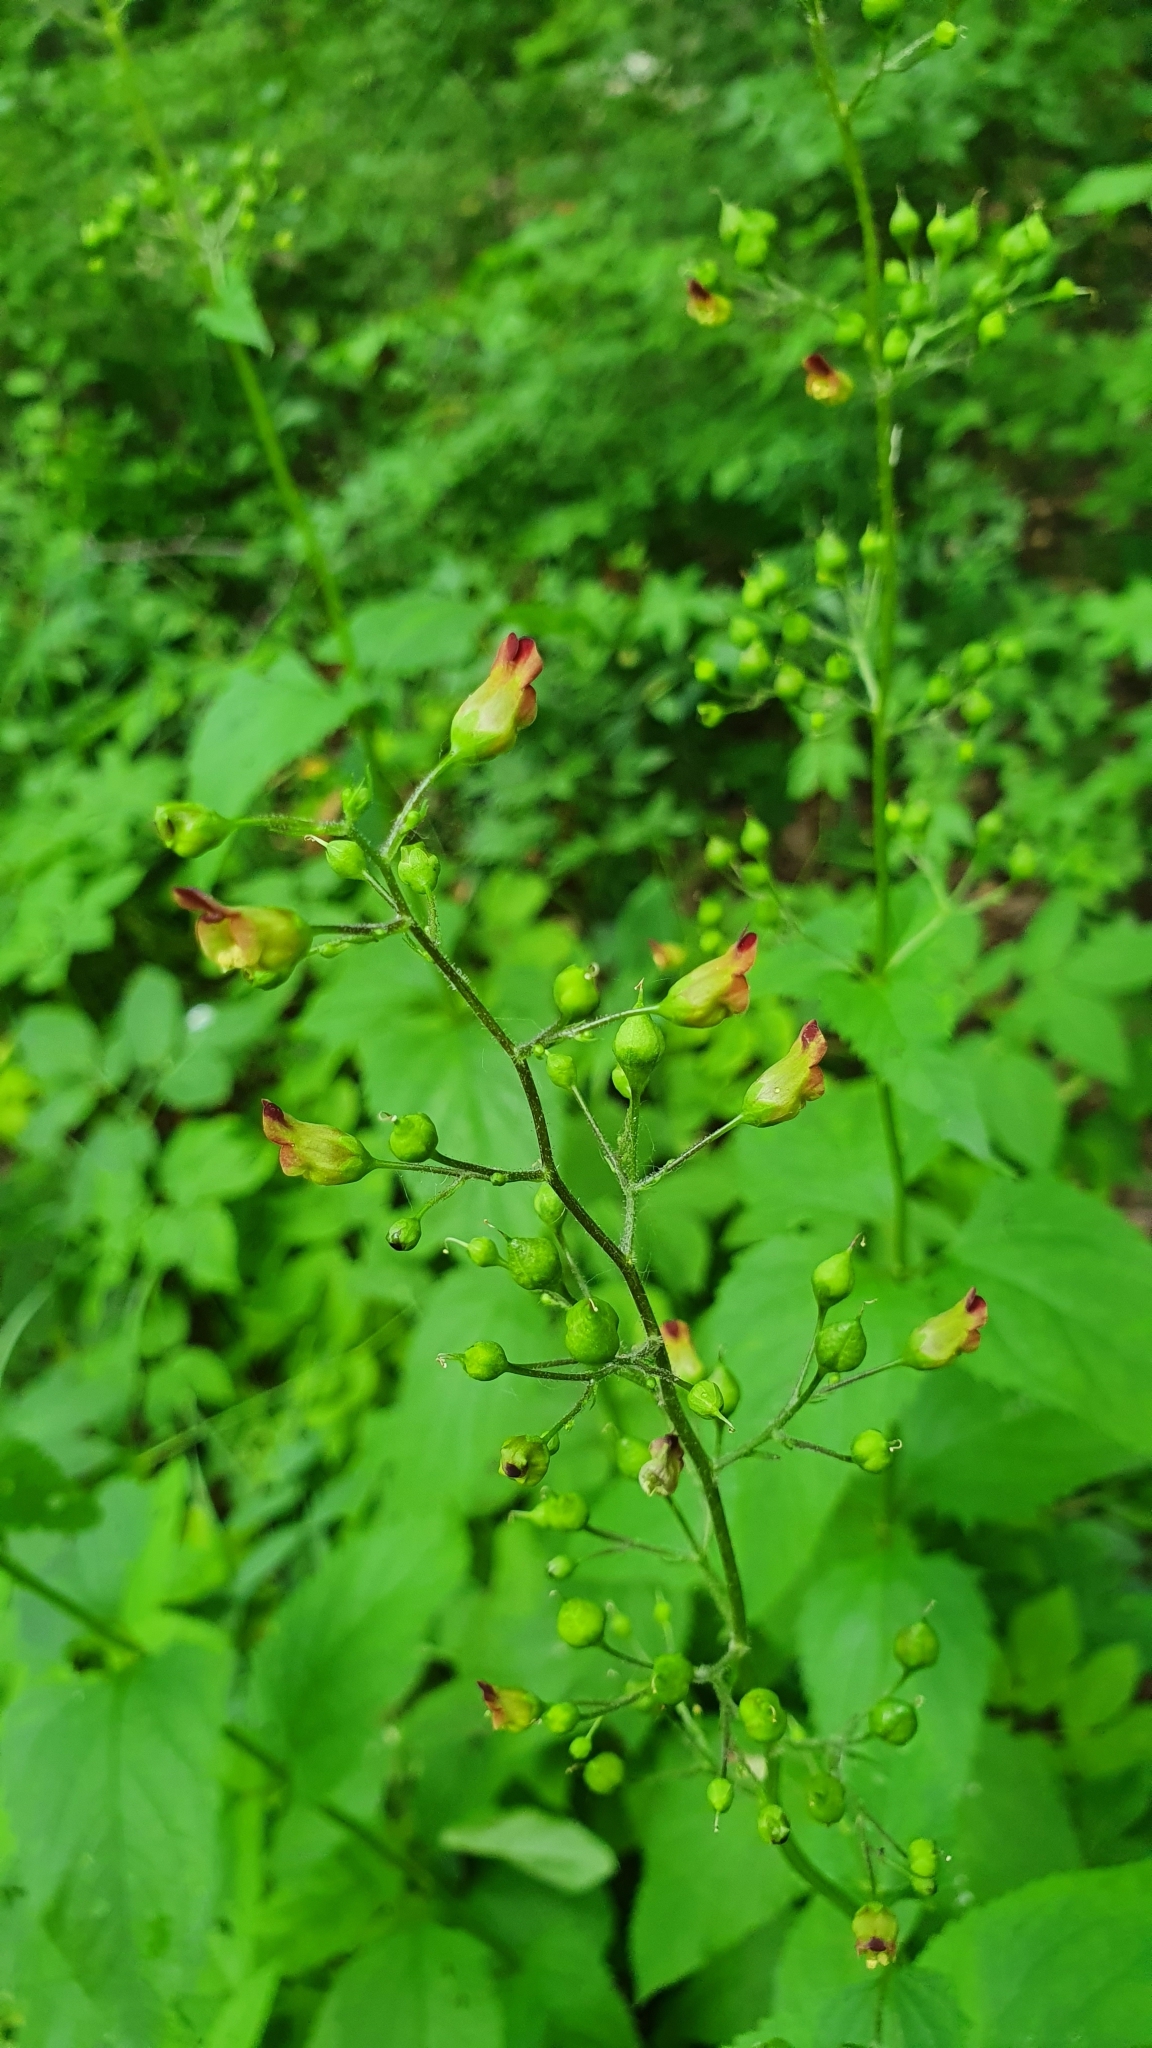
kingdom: Plantae
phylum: Tracheophyta
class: Magnoliopsida
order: Lamiales
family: Scrophulariaceae
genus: Scrophularia
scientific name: Scrophularia nodosa
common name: Common figwort
